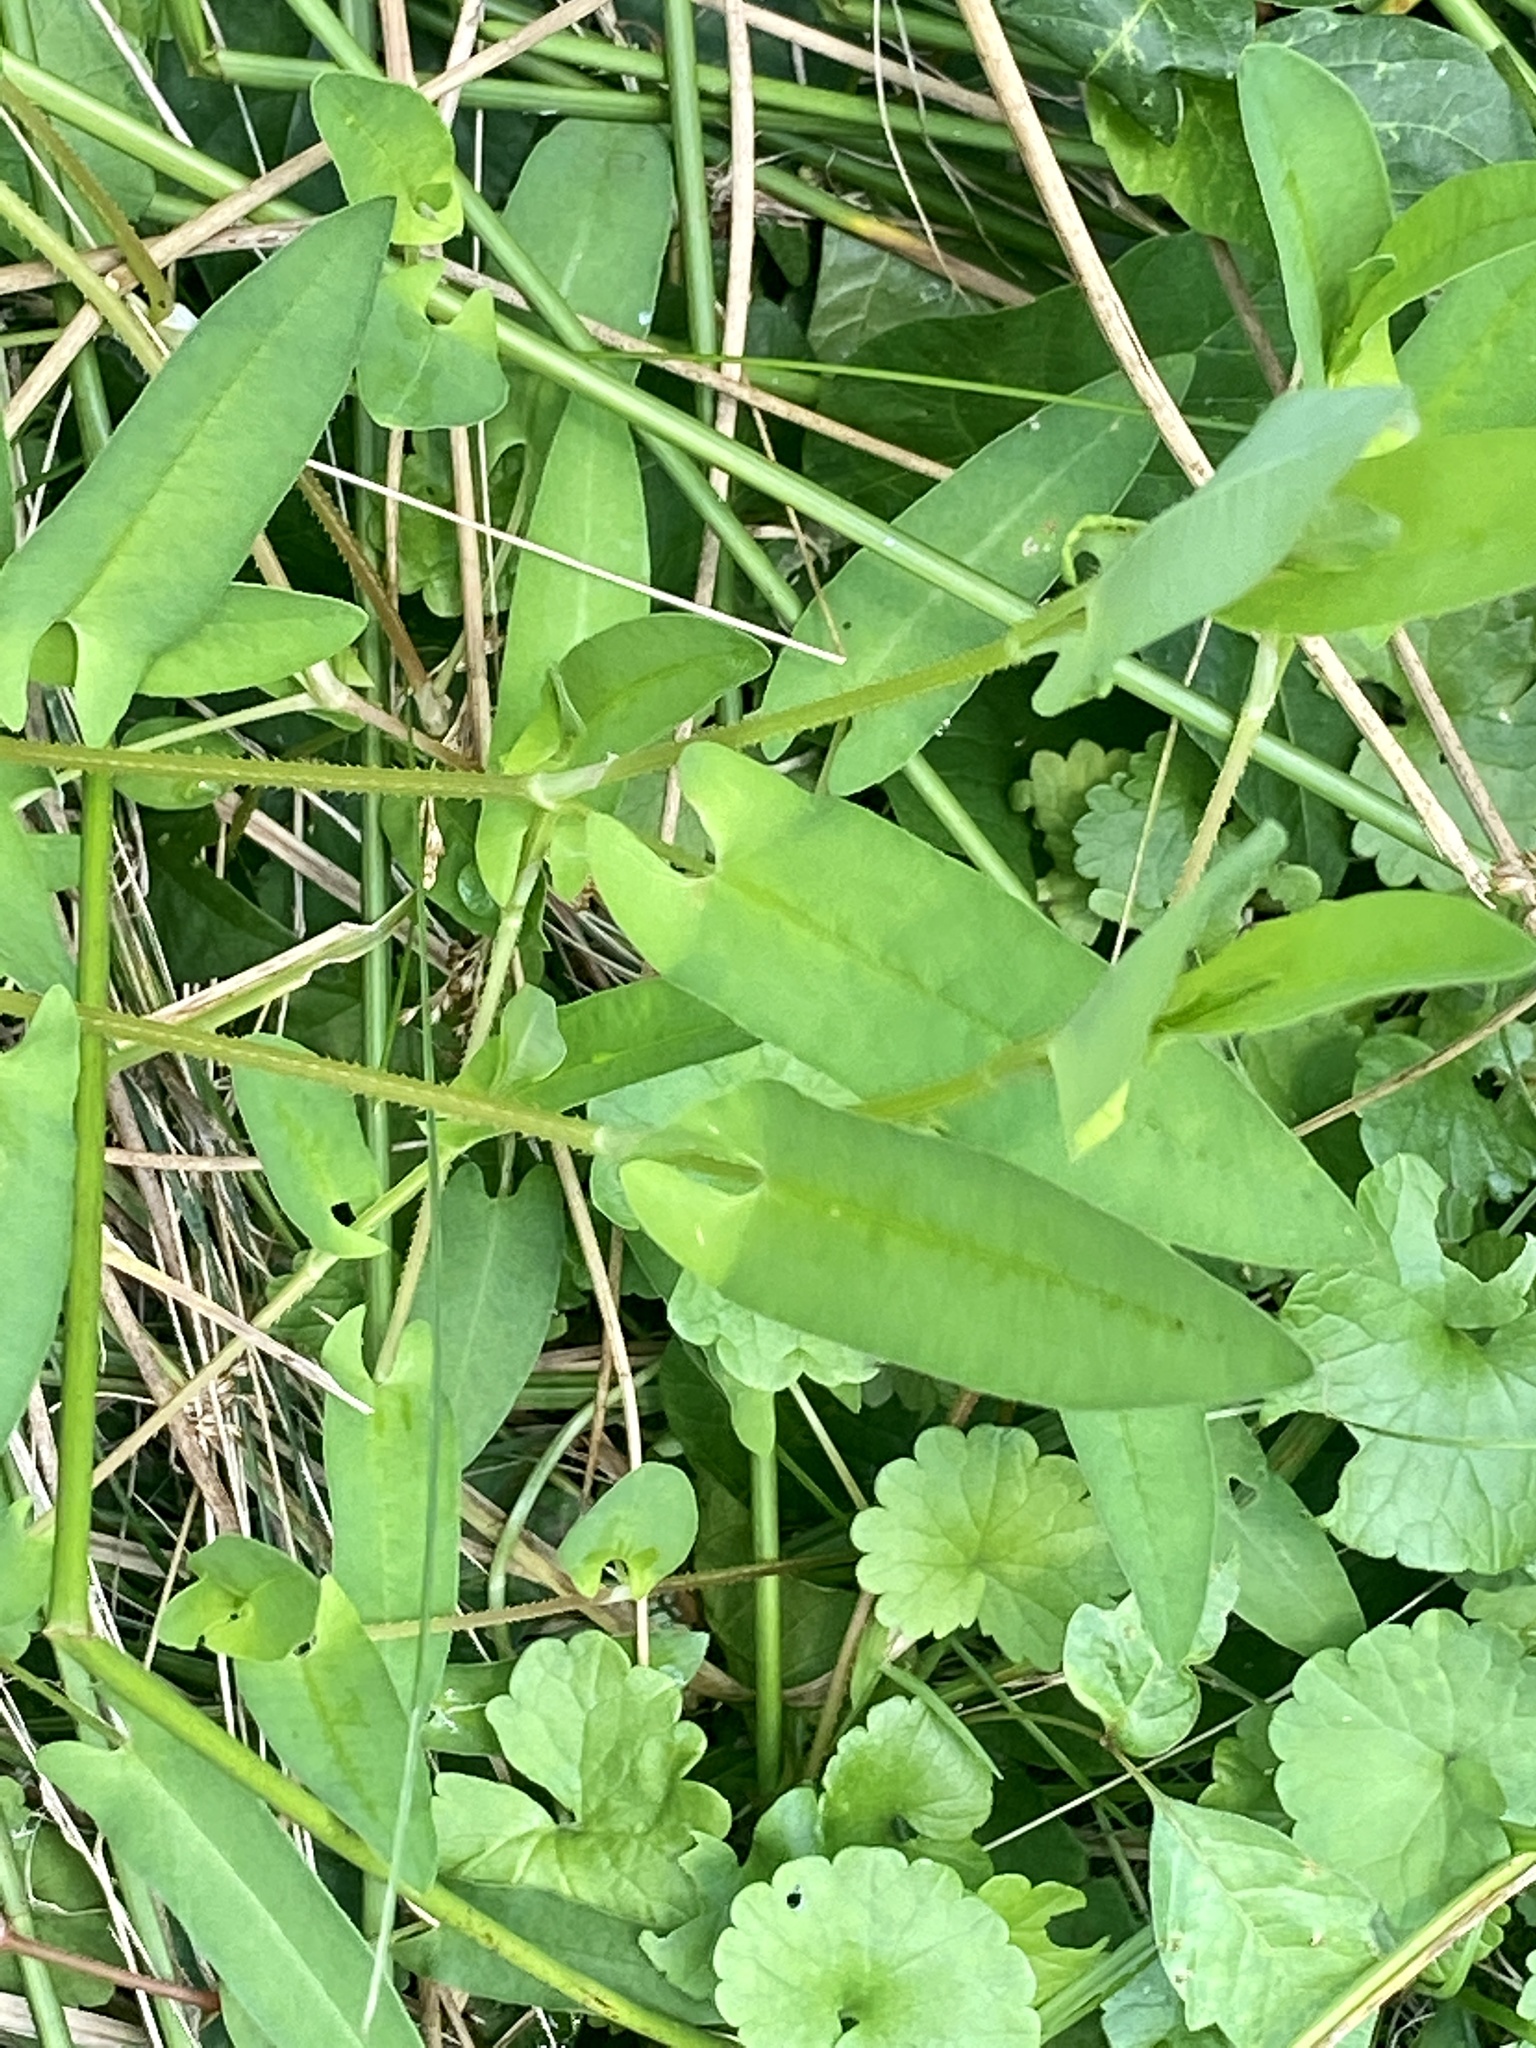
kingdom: Plantae
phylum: Tracheophyta
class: Magnoliopsida
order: Caryophyllales
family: Polygonaceae
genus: Persicaria
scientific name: Persicaria sagittata
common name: American tearthumb
